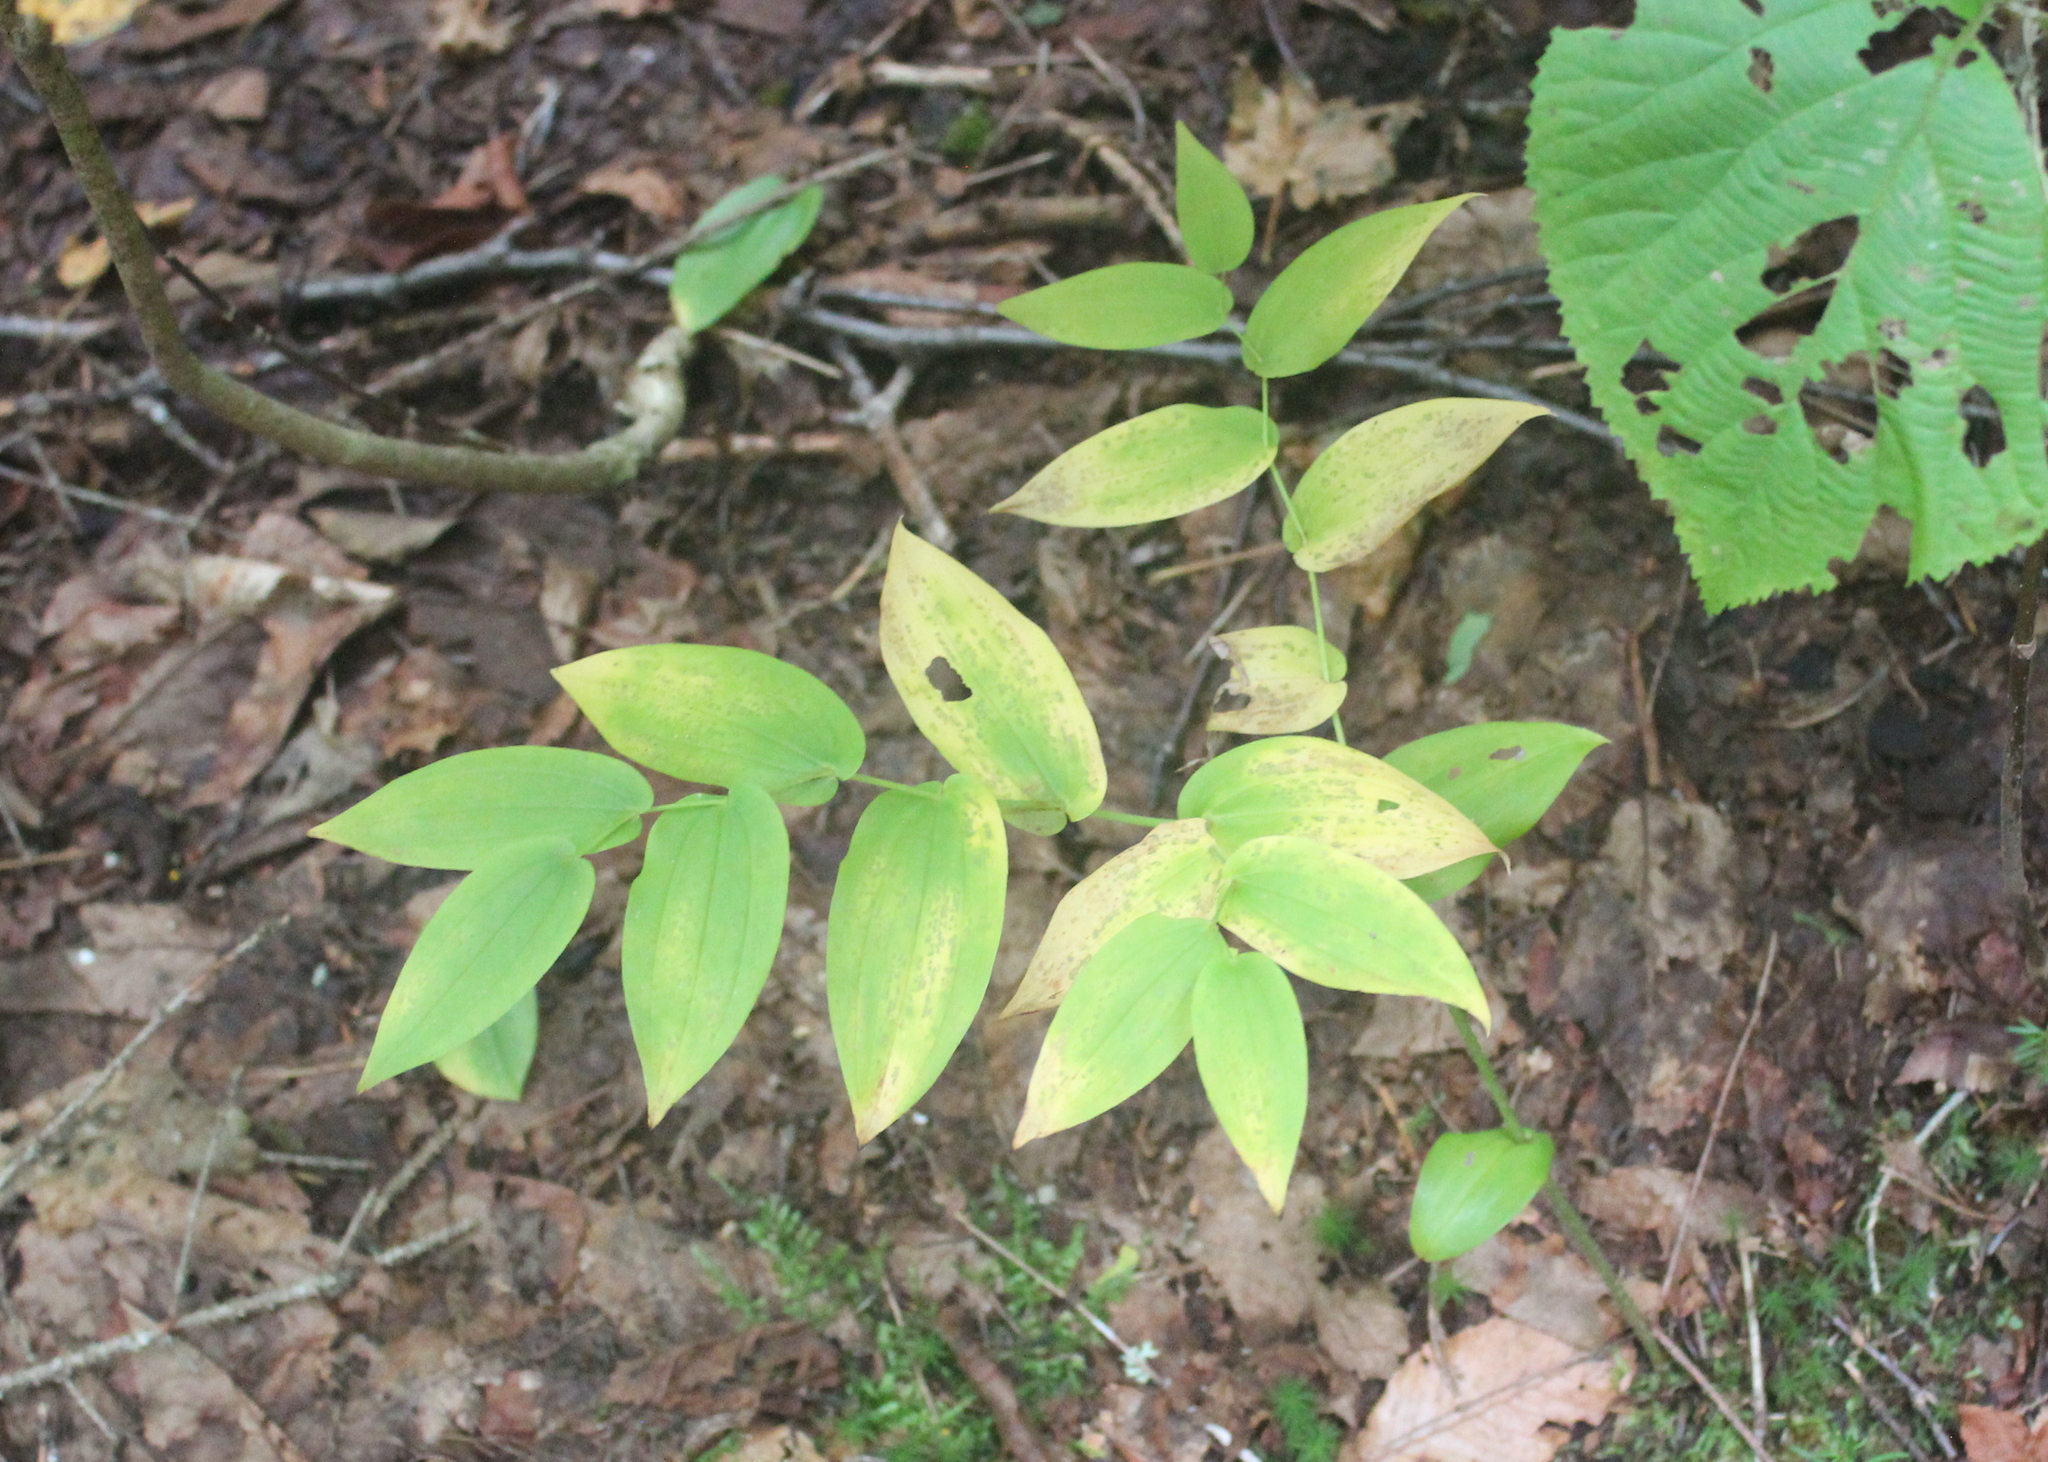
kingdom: Plantae
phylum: Tracheophyta
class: Liliopsida
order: Liliales
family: Liliaceae
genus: Streptopus
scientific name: Streptopus amplexifolius
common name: Clasp twisted stalk
